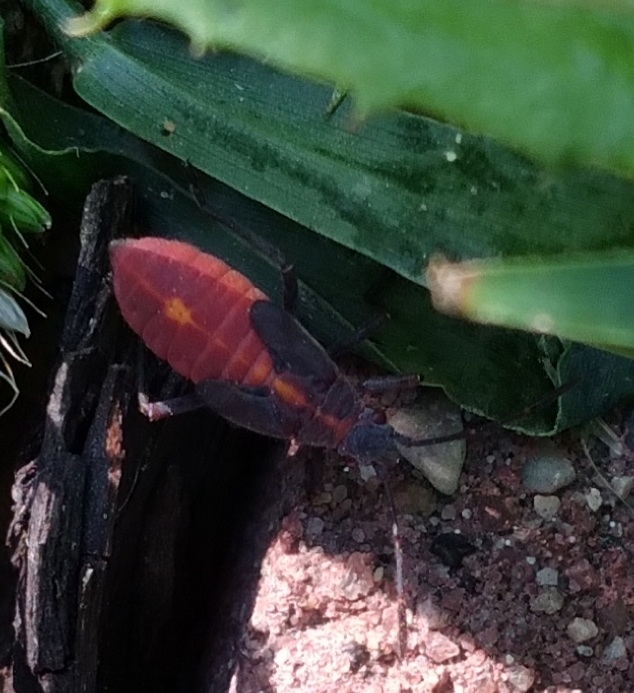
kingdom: Animalia
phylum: Arthropoda
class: Insecta
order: Hemiptera
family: Rhopalidae
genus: Boisea
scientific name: Boisea trivittata
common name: Boxelder bug
